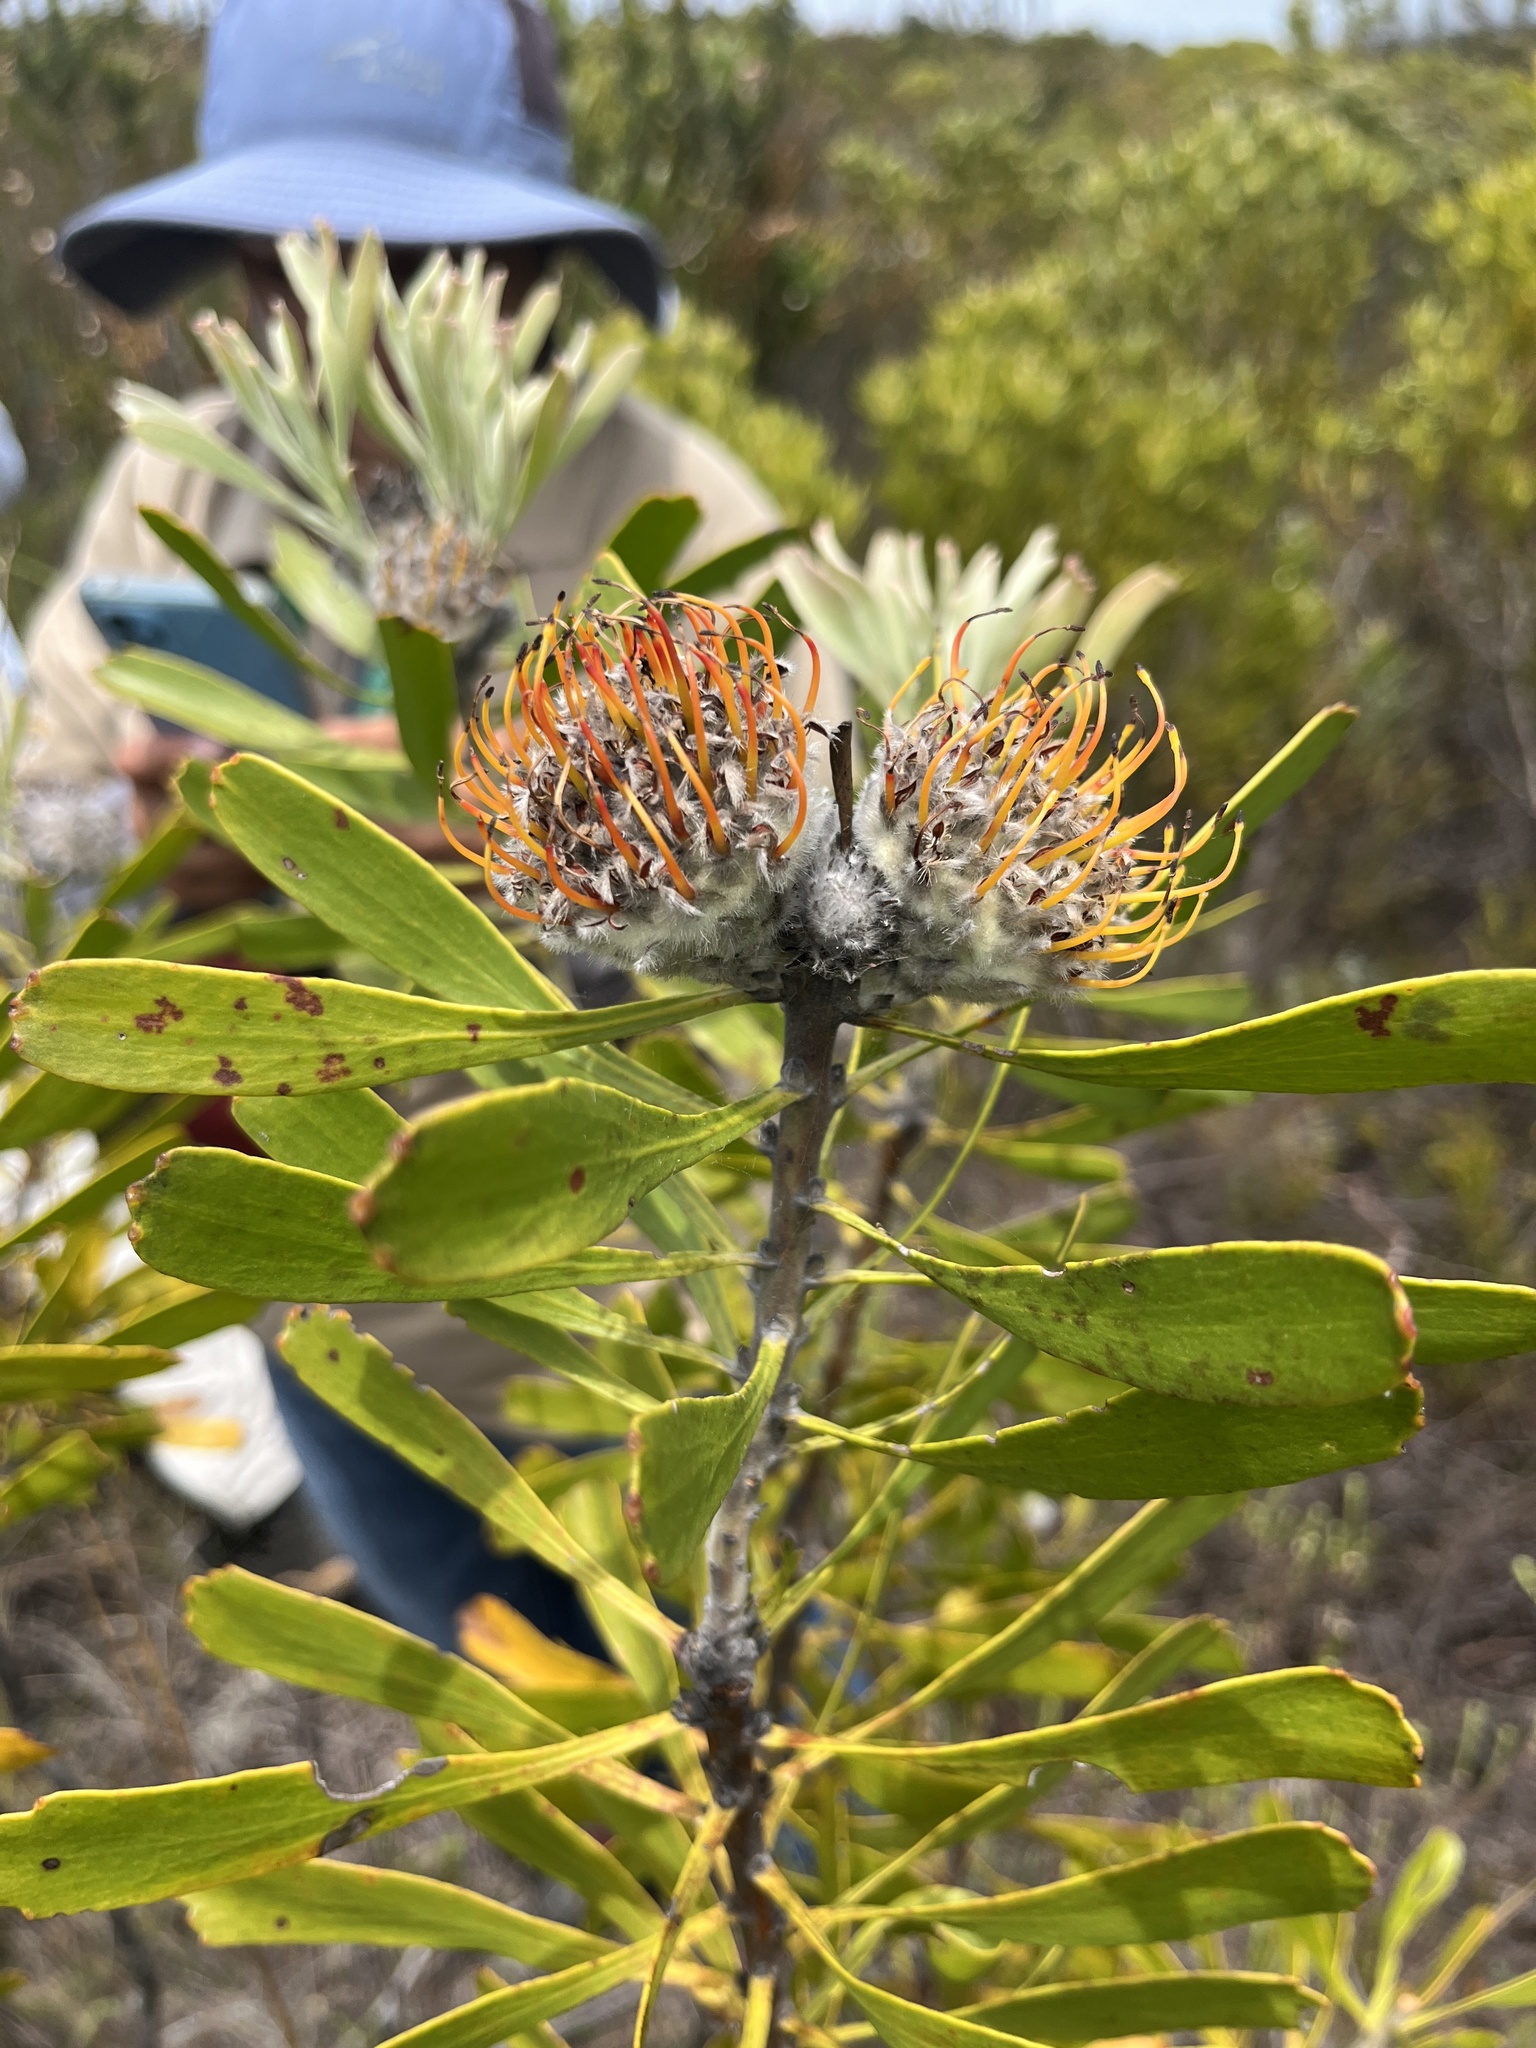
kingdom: Plantae
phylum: Tracheophyta
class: Magnoliopsida
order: Proteales
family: Proteaceae
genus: Leucospermum
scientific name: Leucospermum truncatum
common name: Limestone pincushion
